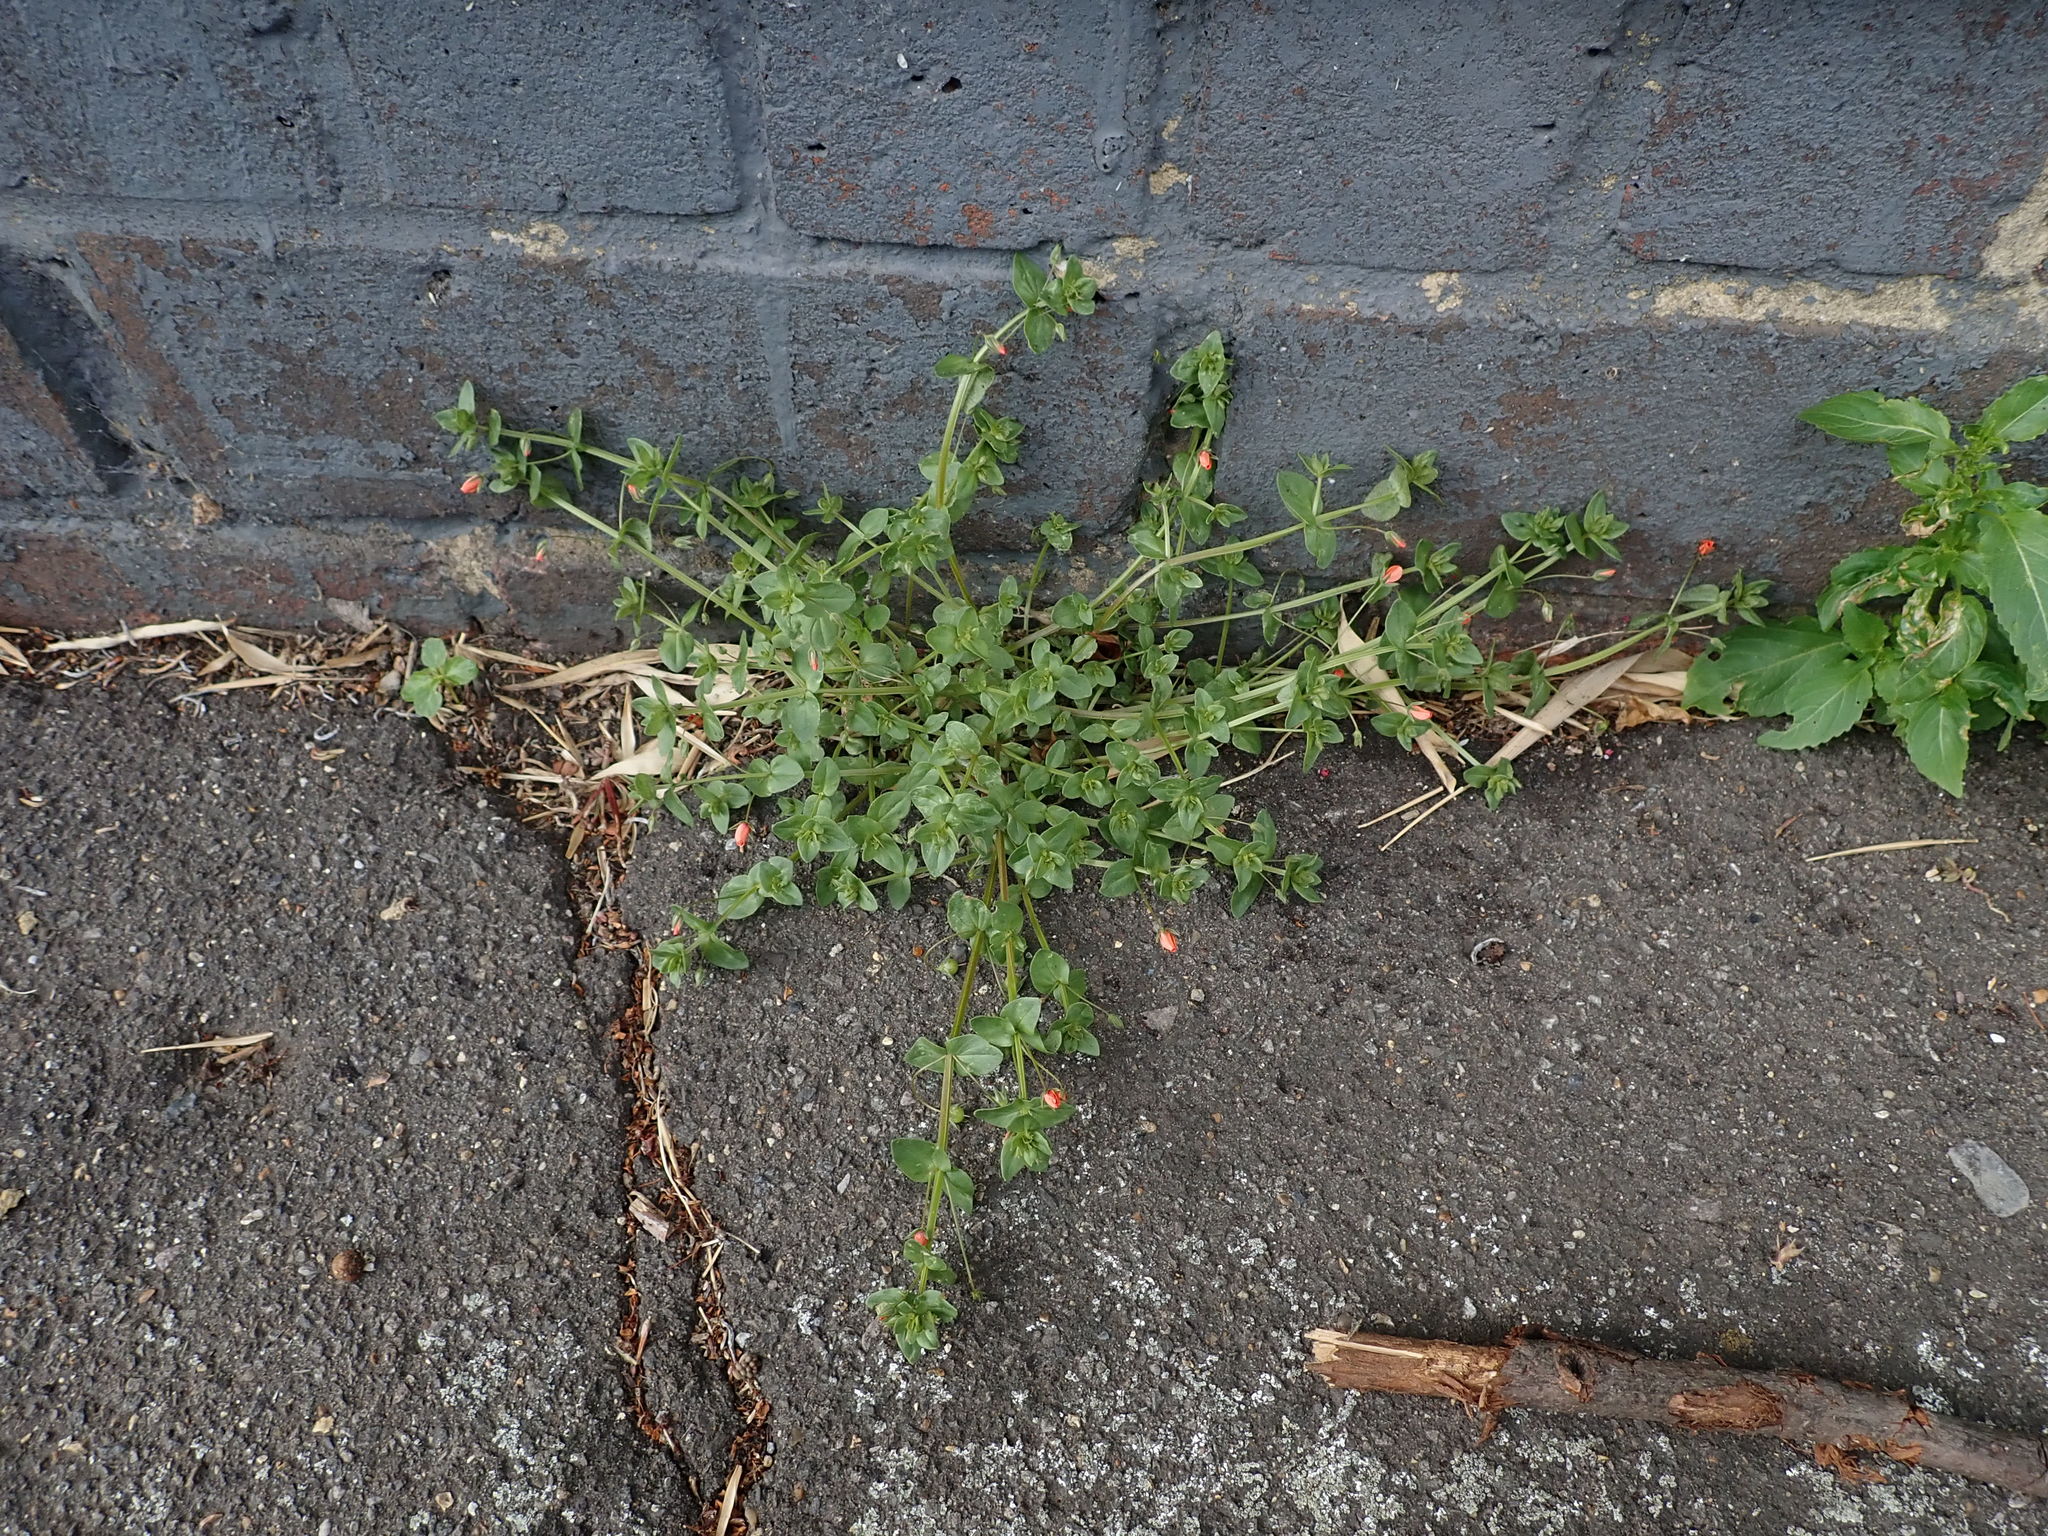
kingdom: Plantae
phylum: Tracheophyta
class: Magnoliopsida
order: Ericales
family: Primulaceae
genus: Lysimachia
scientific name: Lysimachia arvensis
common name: Scarlet pimpernel
